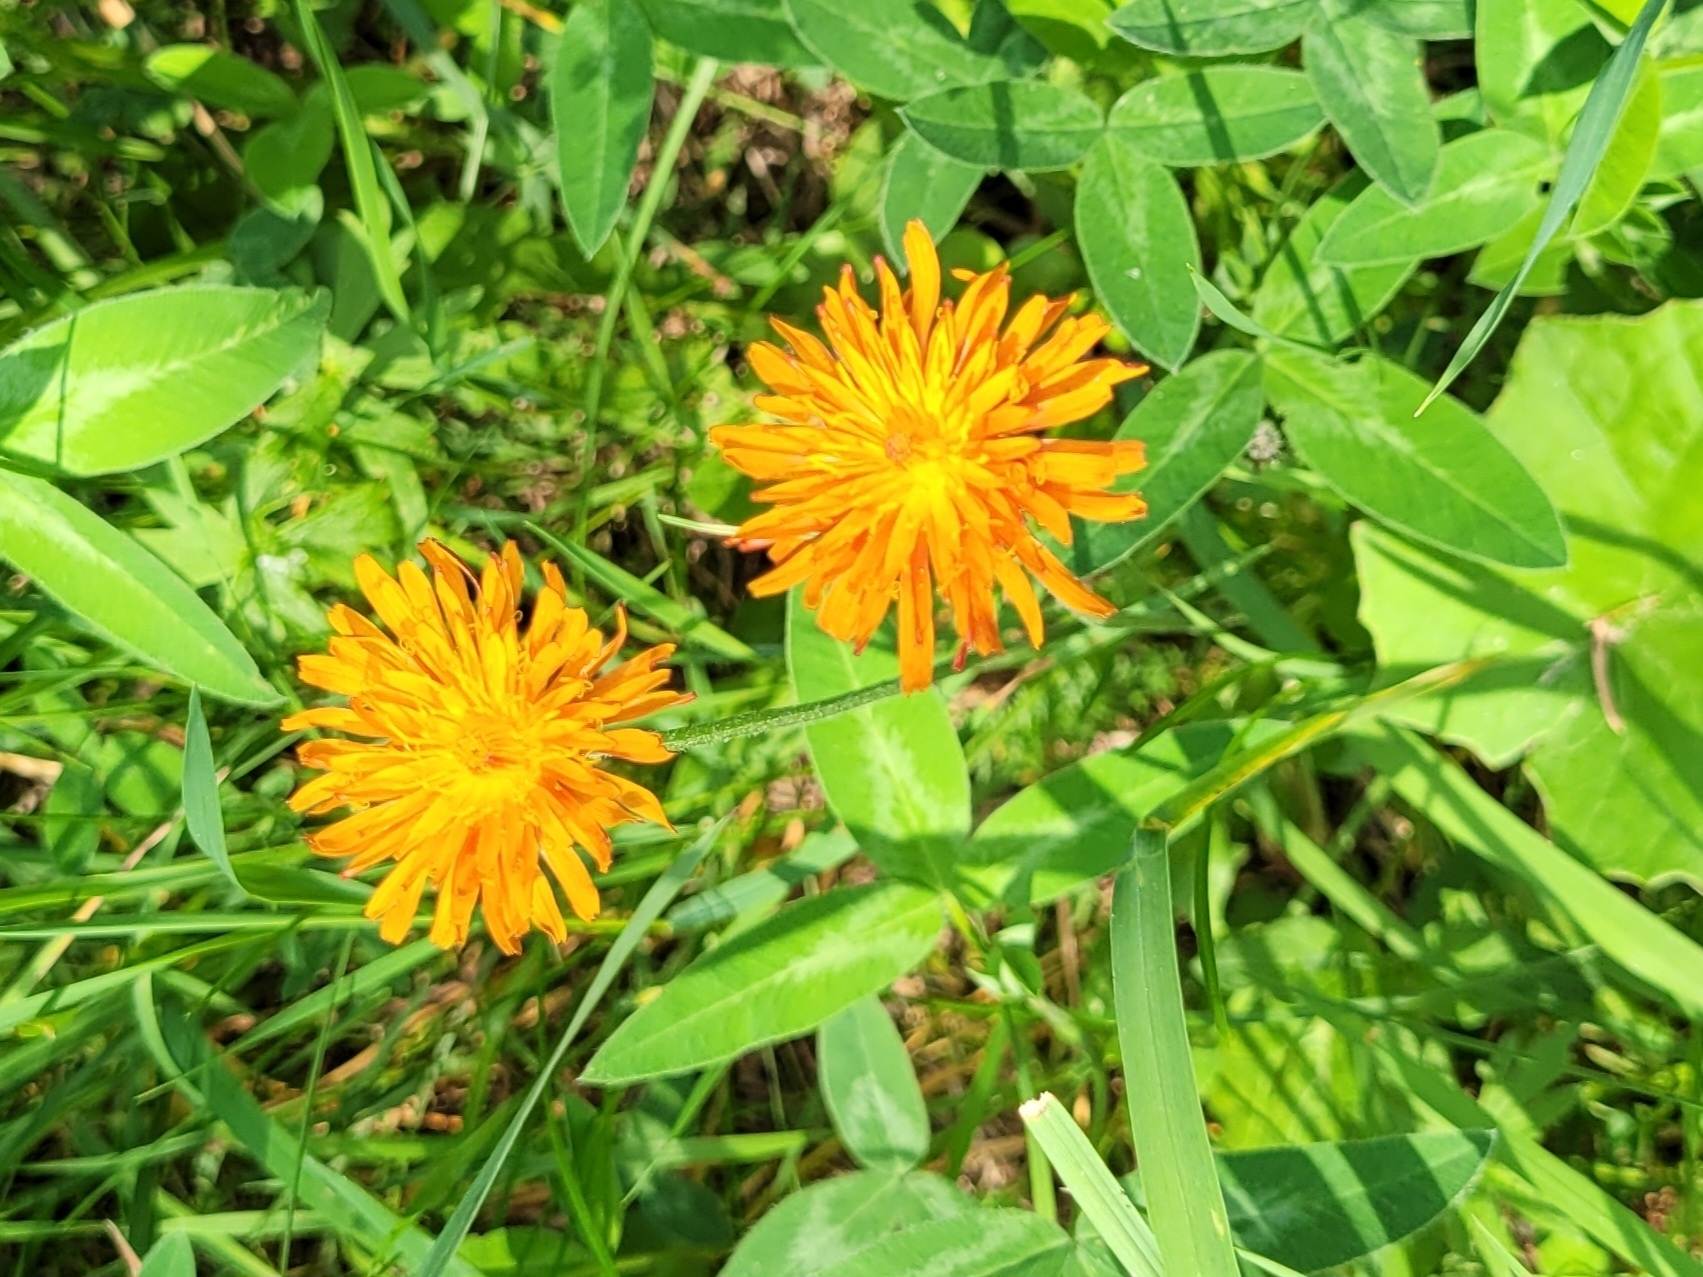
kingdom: Plantae
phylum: Tracheophyta
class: Magnoliopsida
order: Asterales
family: Asteraceae
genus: Crepis
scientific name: Crepis aurea
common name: Golden hawk's-beard
